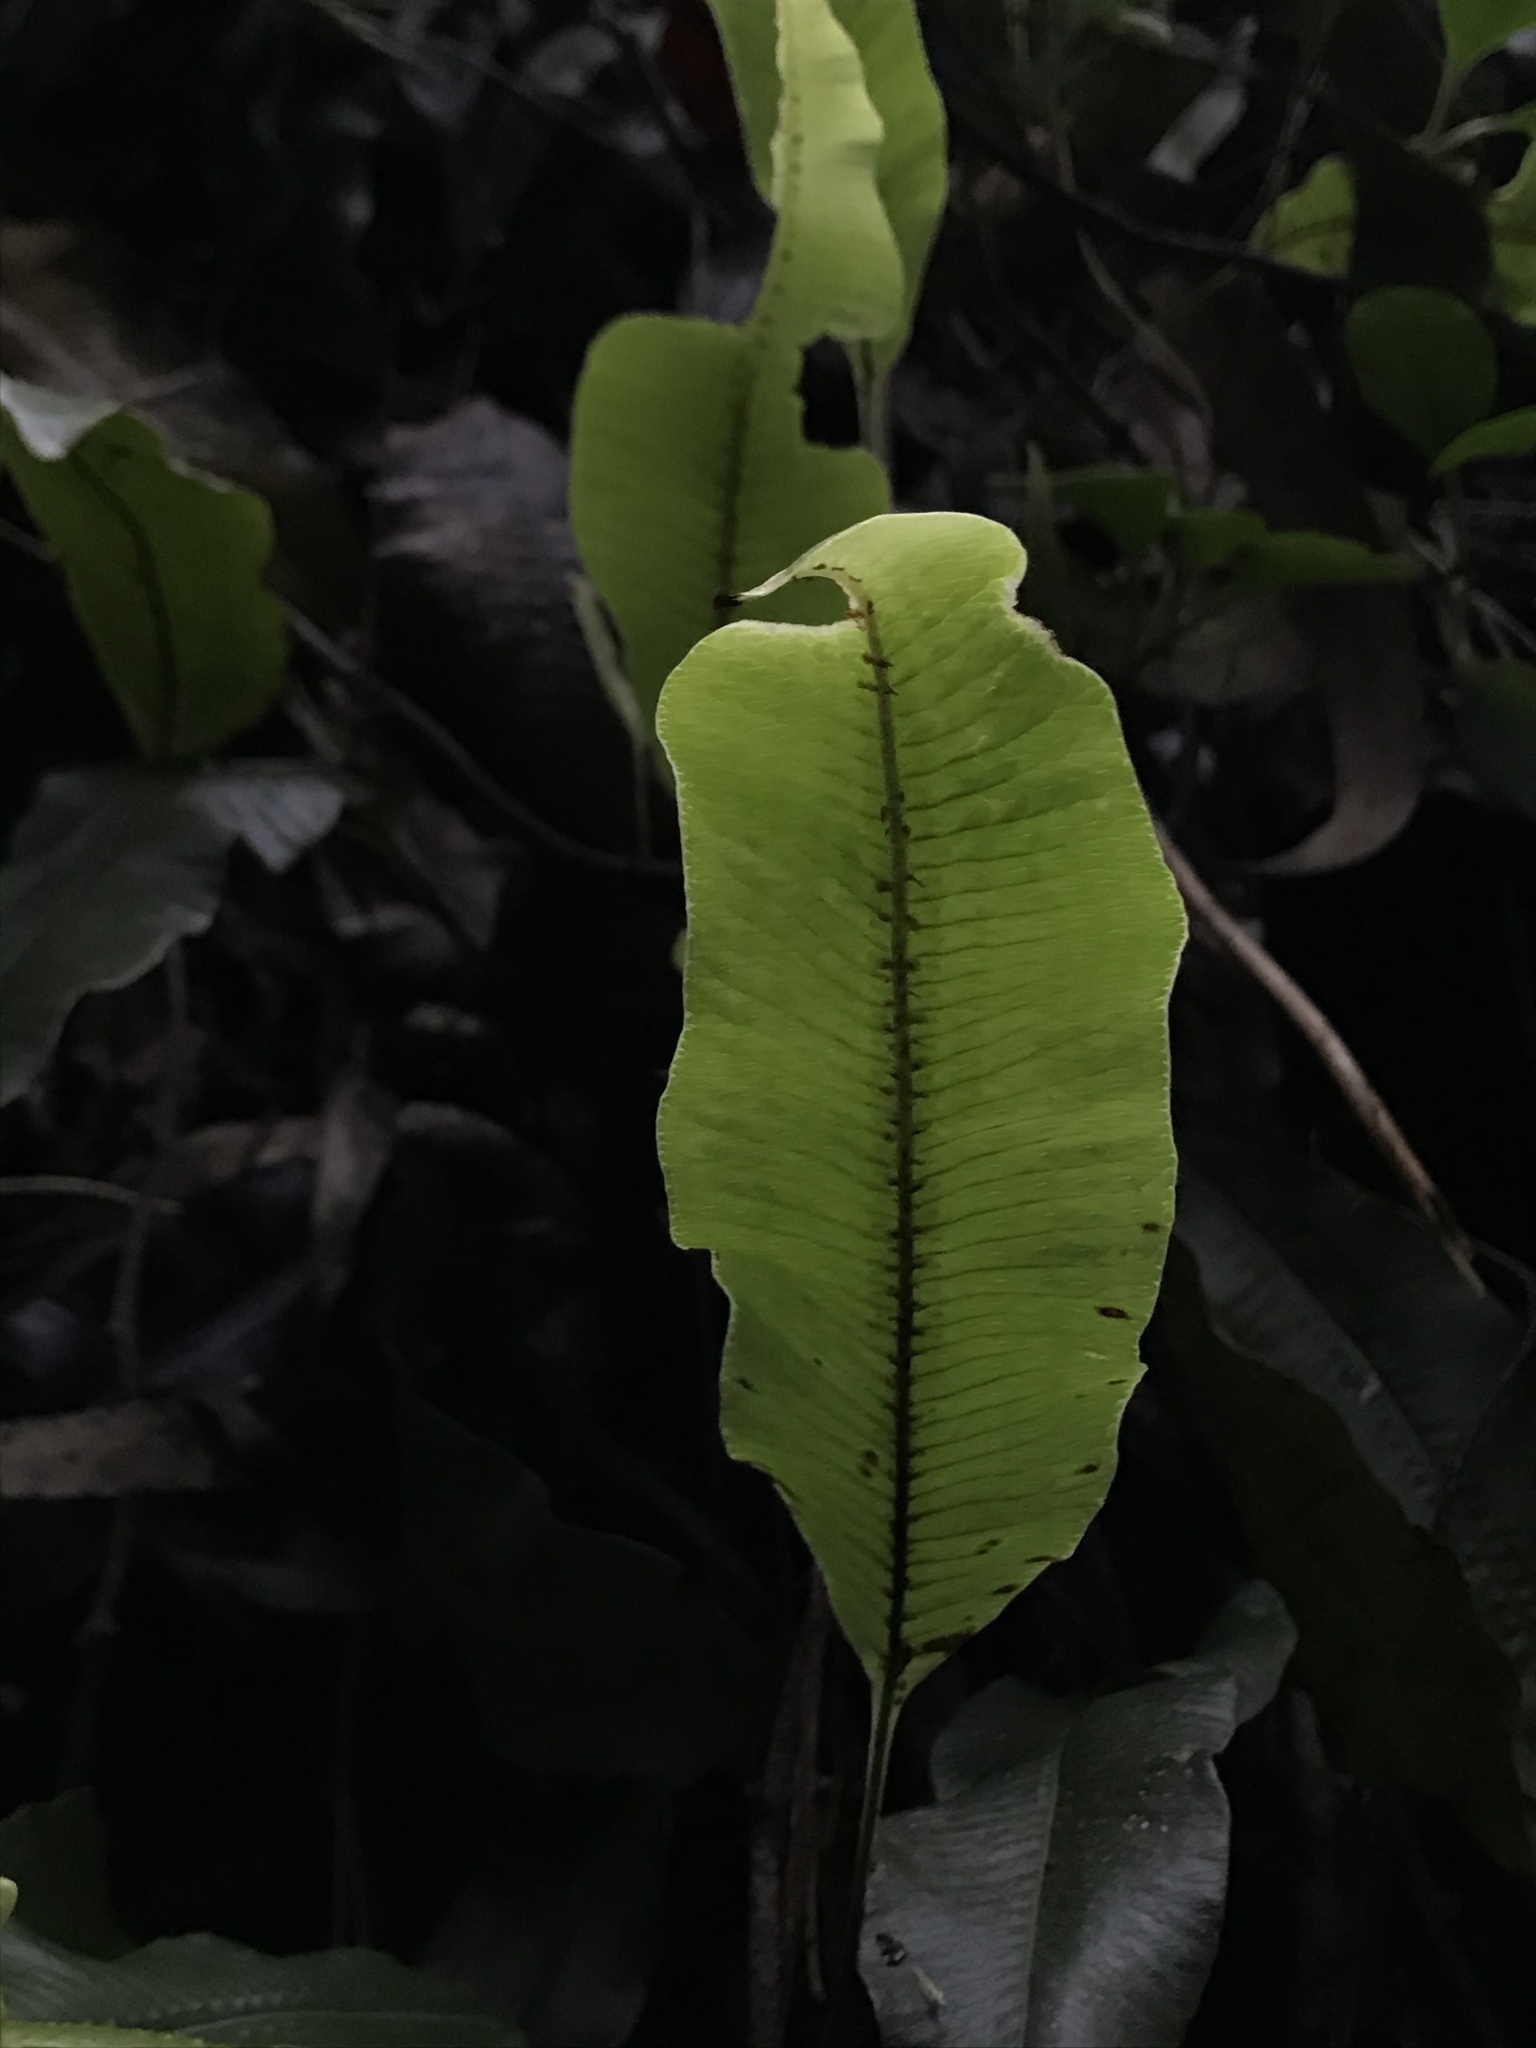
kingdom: Plantae
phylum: Tracheophyta
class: Polypodiopsida
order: Polypodiales
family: Polypodiaceae
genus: Serpocaulon
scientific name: Serpocaulon levigatum
